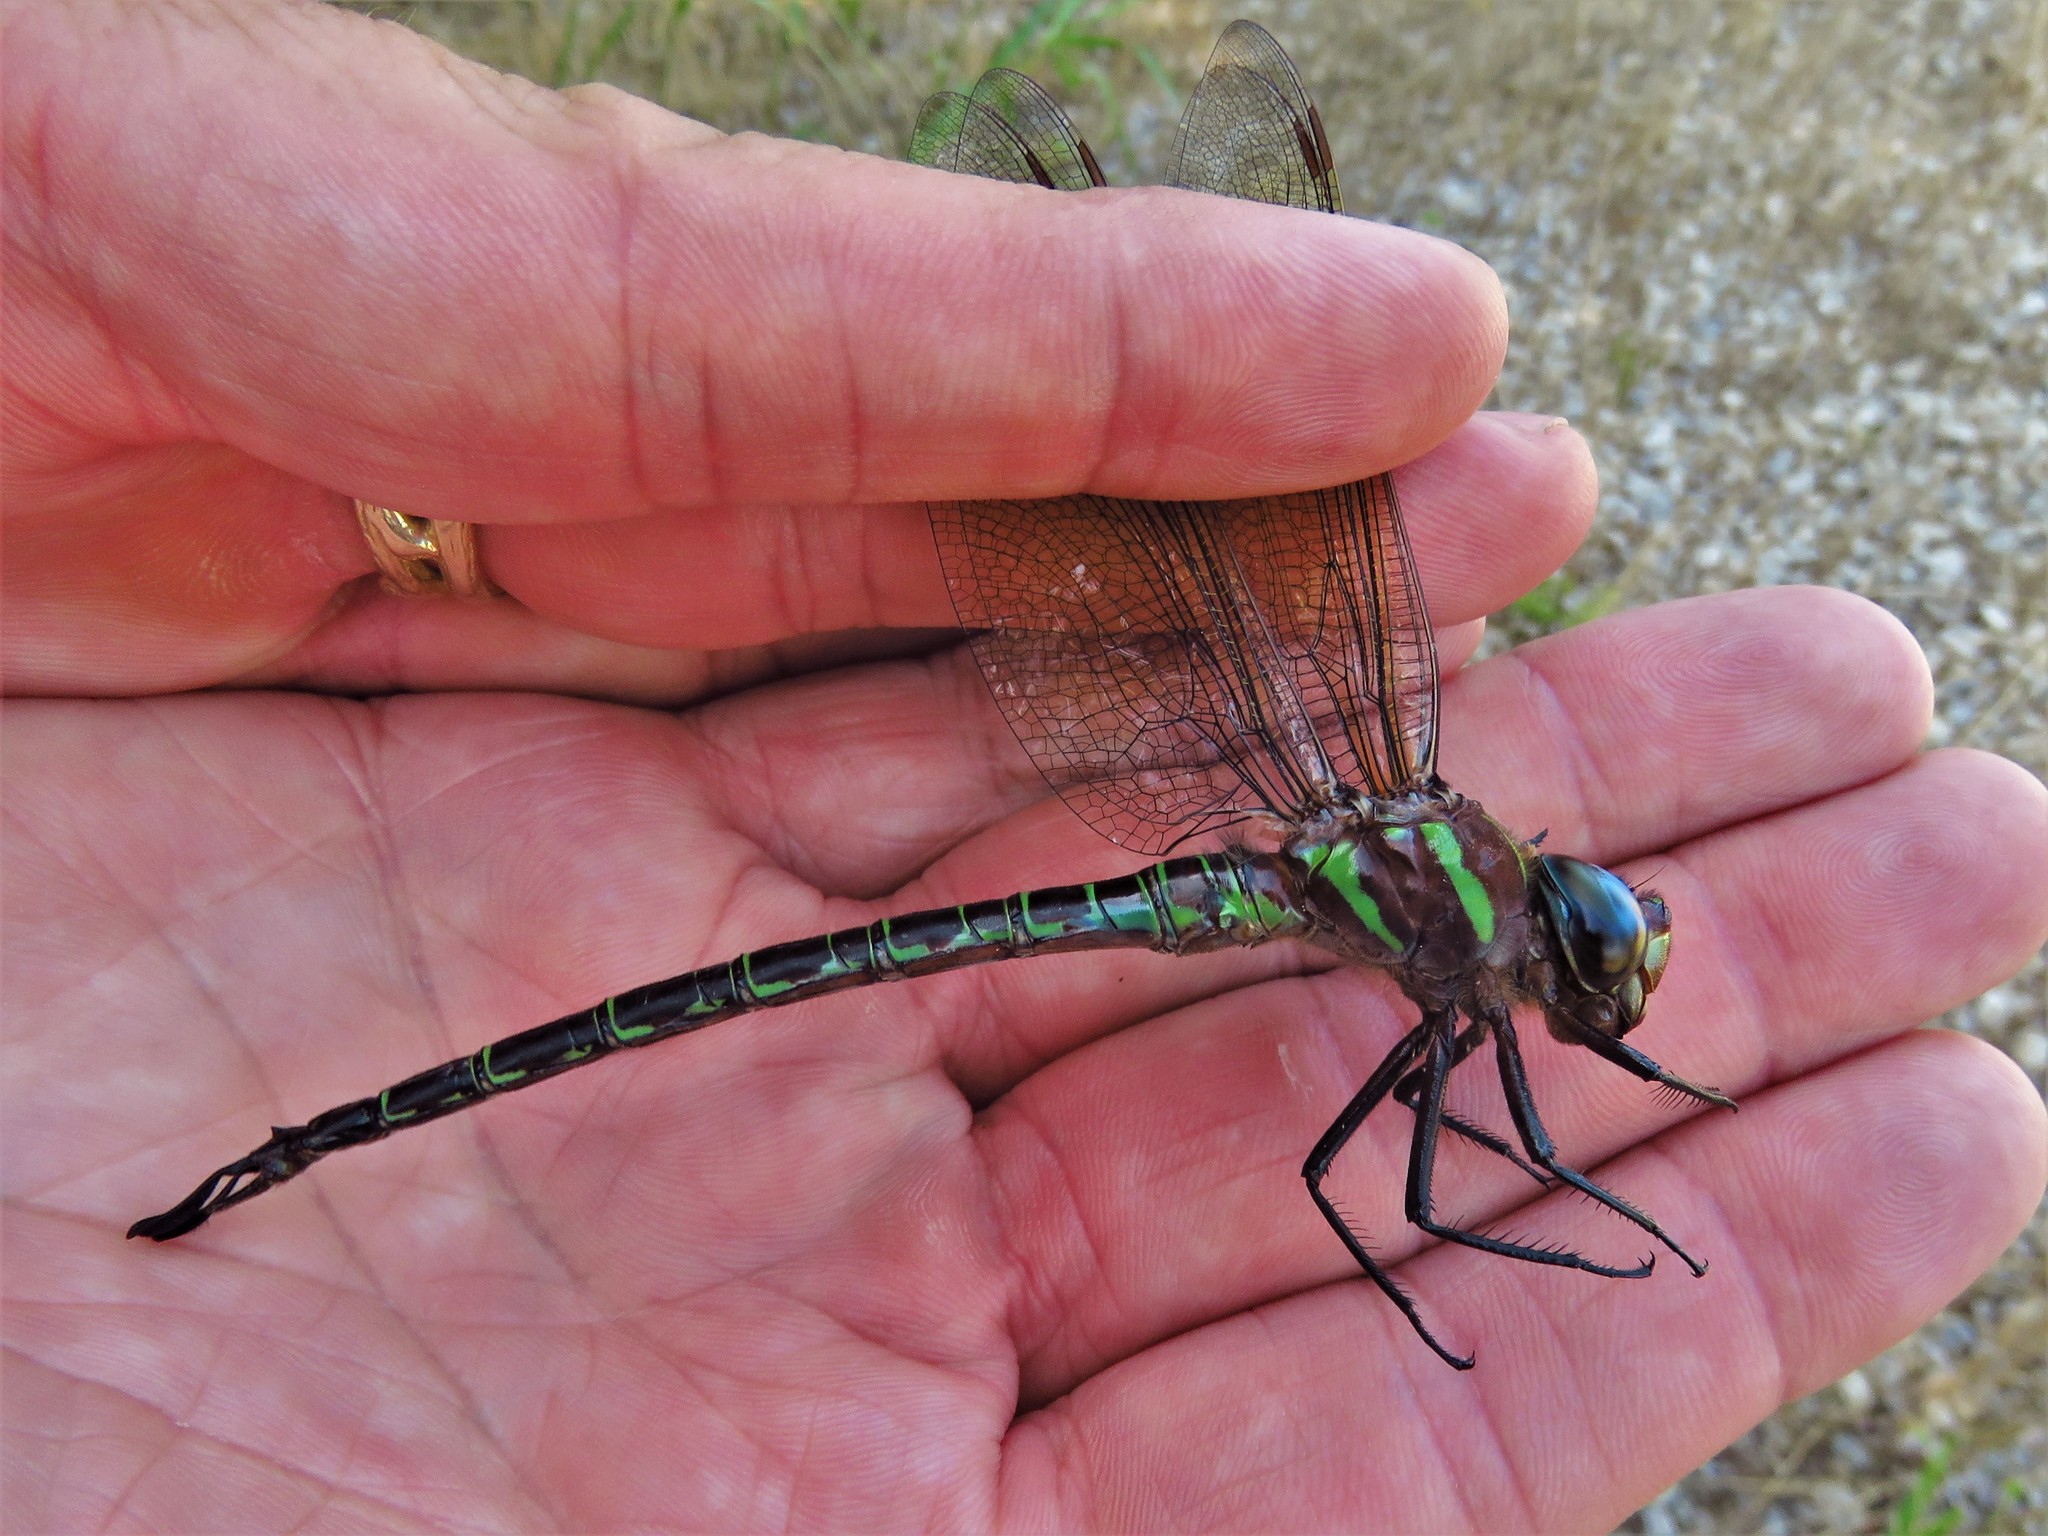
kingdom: Animalia
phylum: Arthropoda
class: Insecta
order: Odonata
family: Aeshnidae
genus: Epiaeschna
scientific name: Epiaeschna heros
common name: Swamp darner
